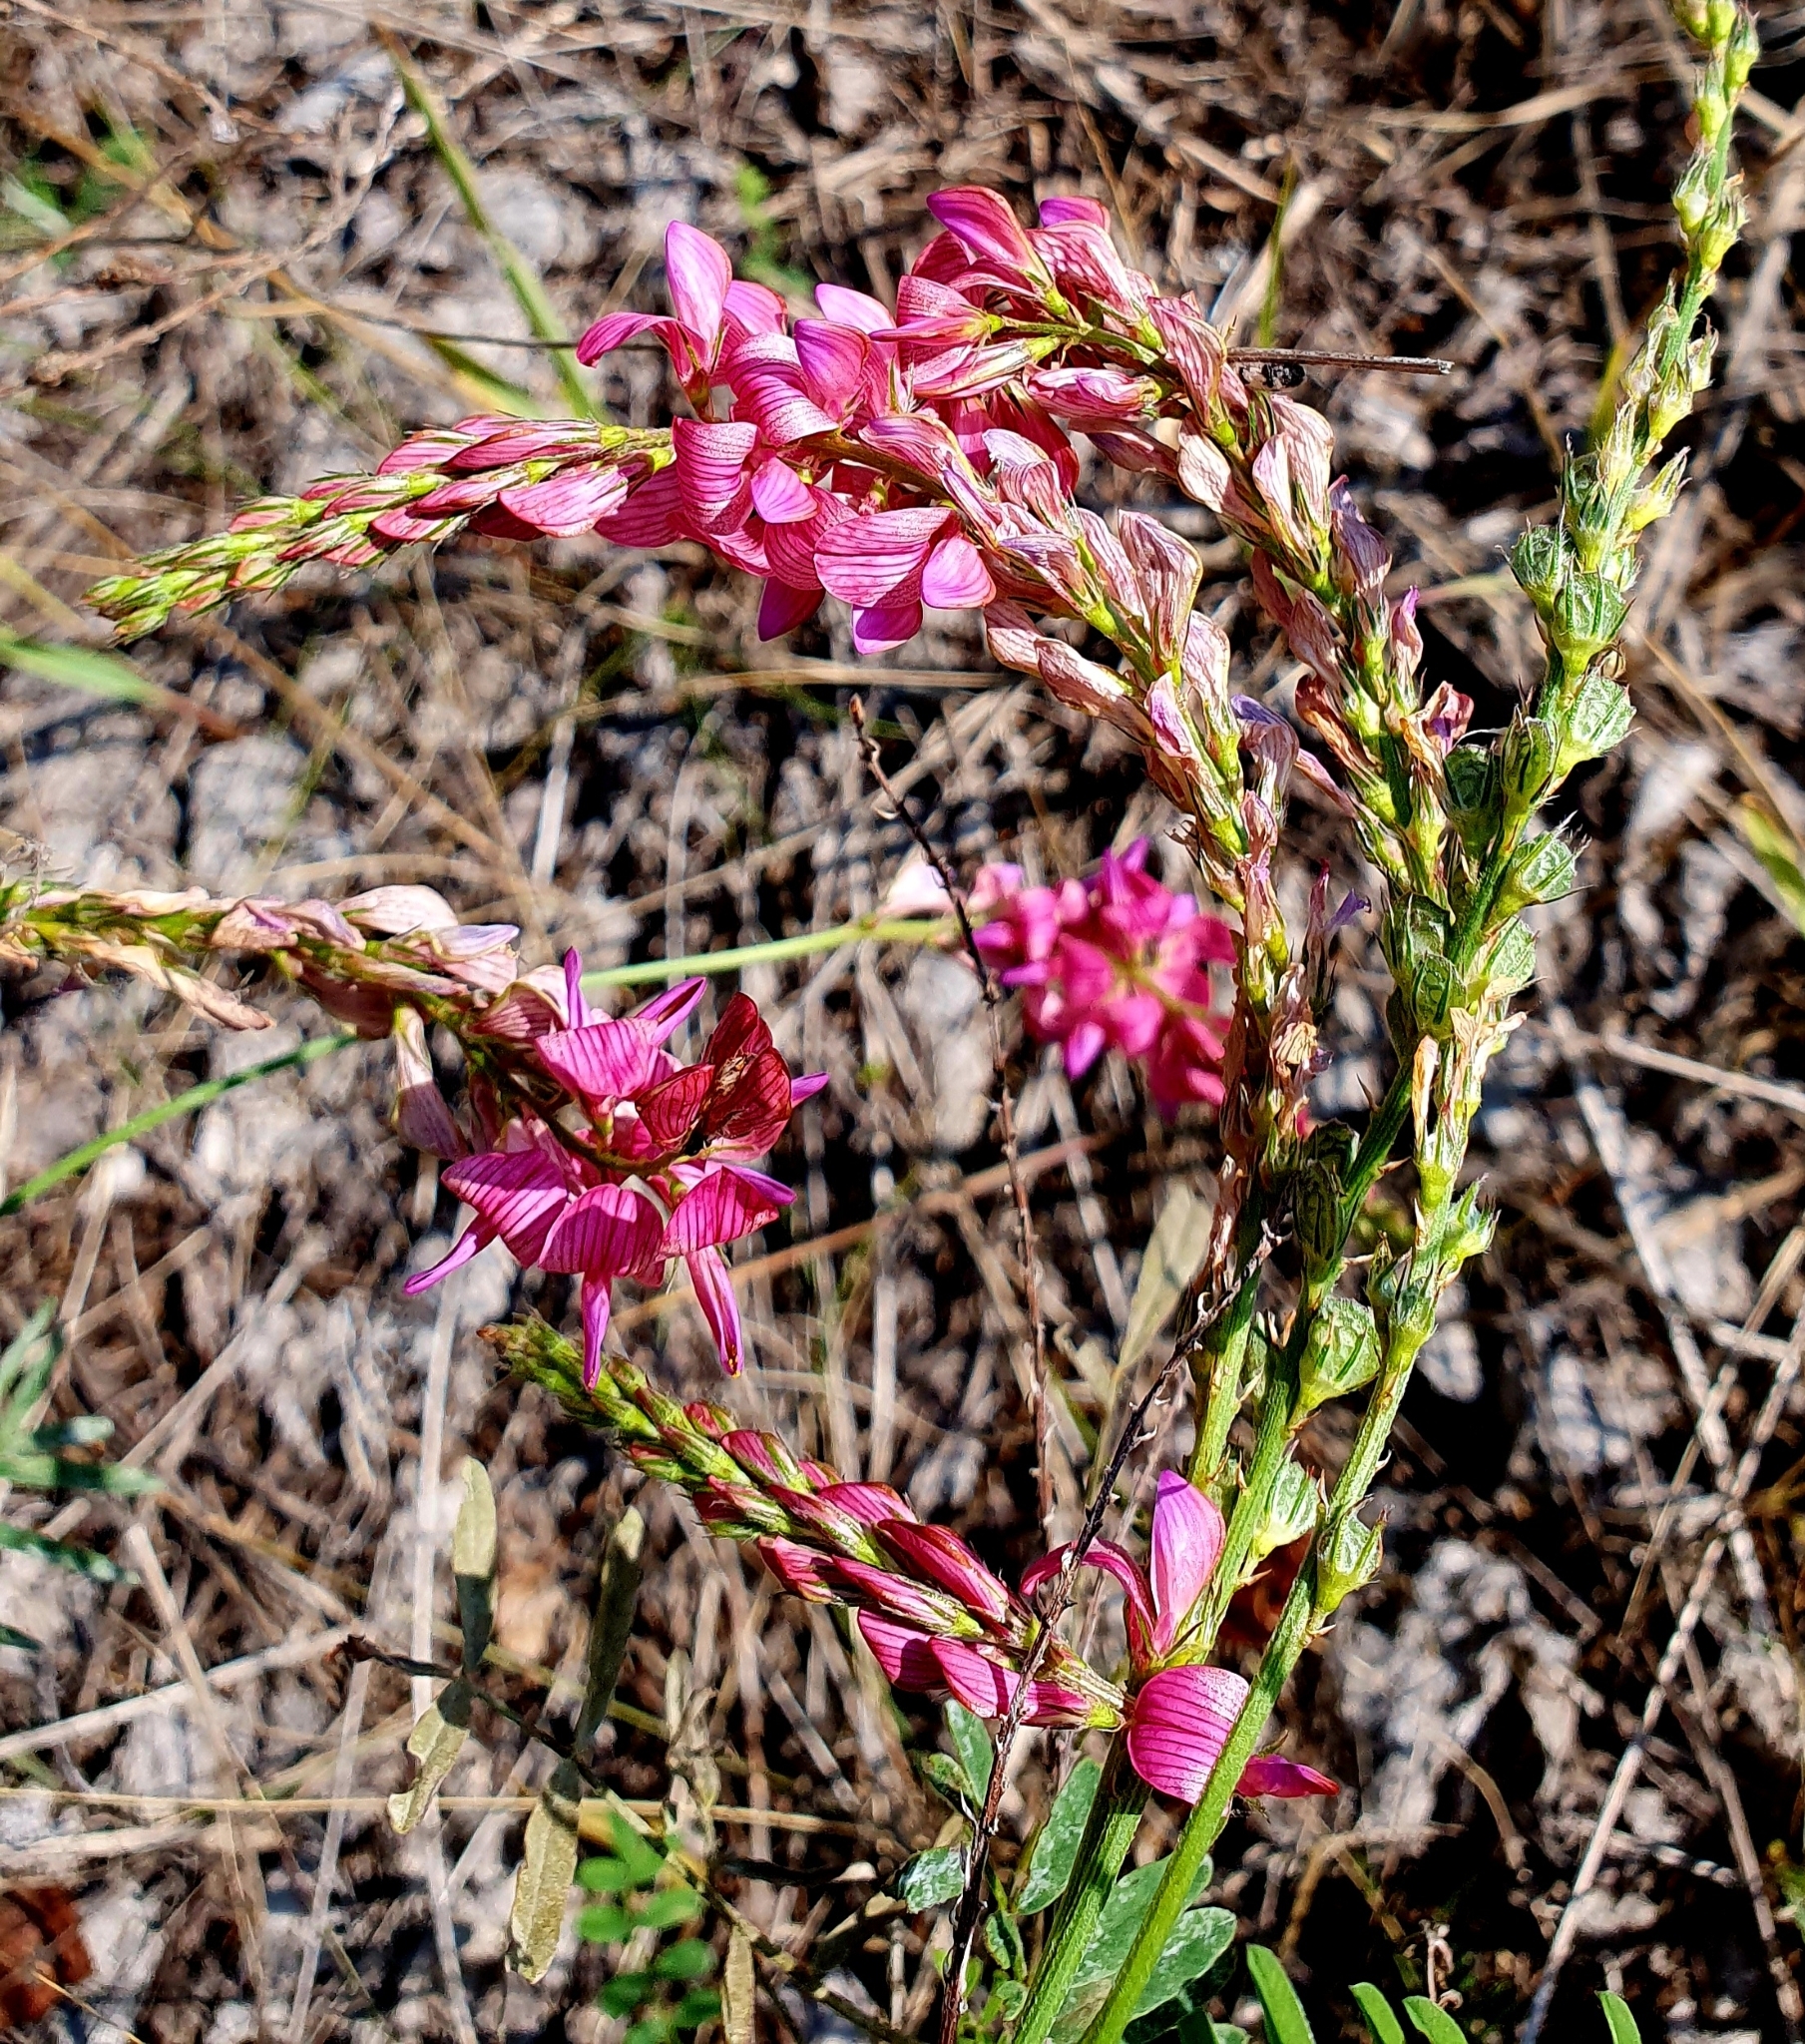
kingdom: Plantae
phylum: Tracheophyta
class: Magnoliopsida
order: Fabales
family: Fabaceae
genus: Onobrychis
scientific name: Onobrychis viciifolia
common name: Sainfoin
